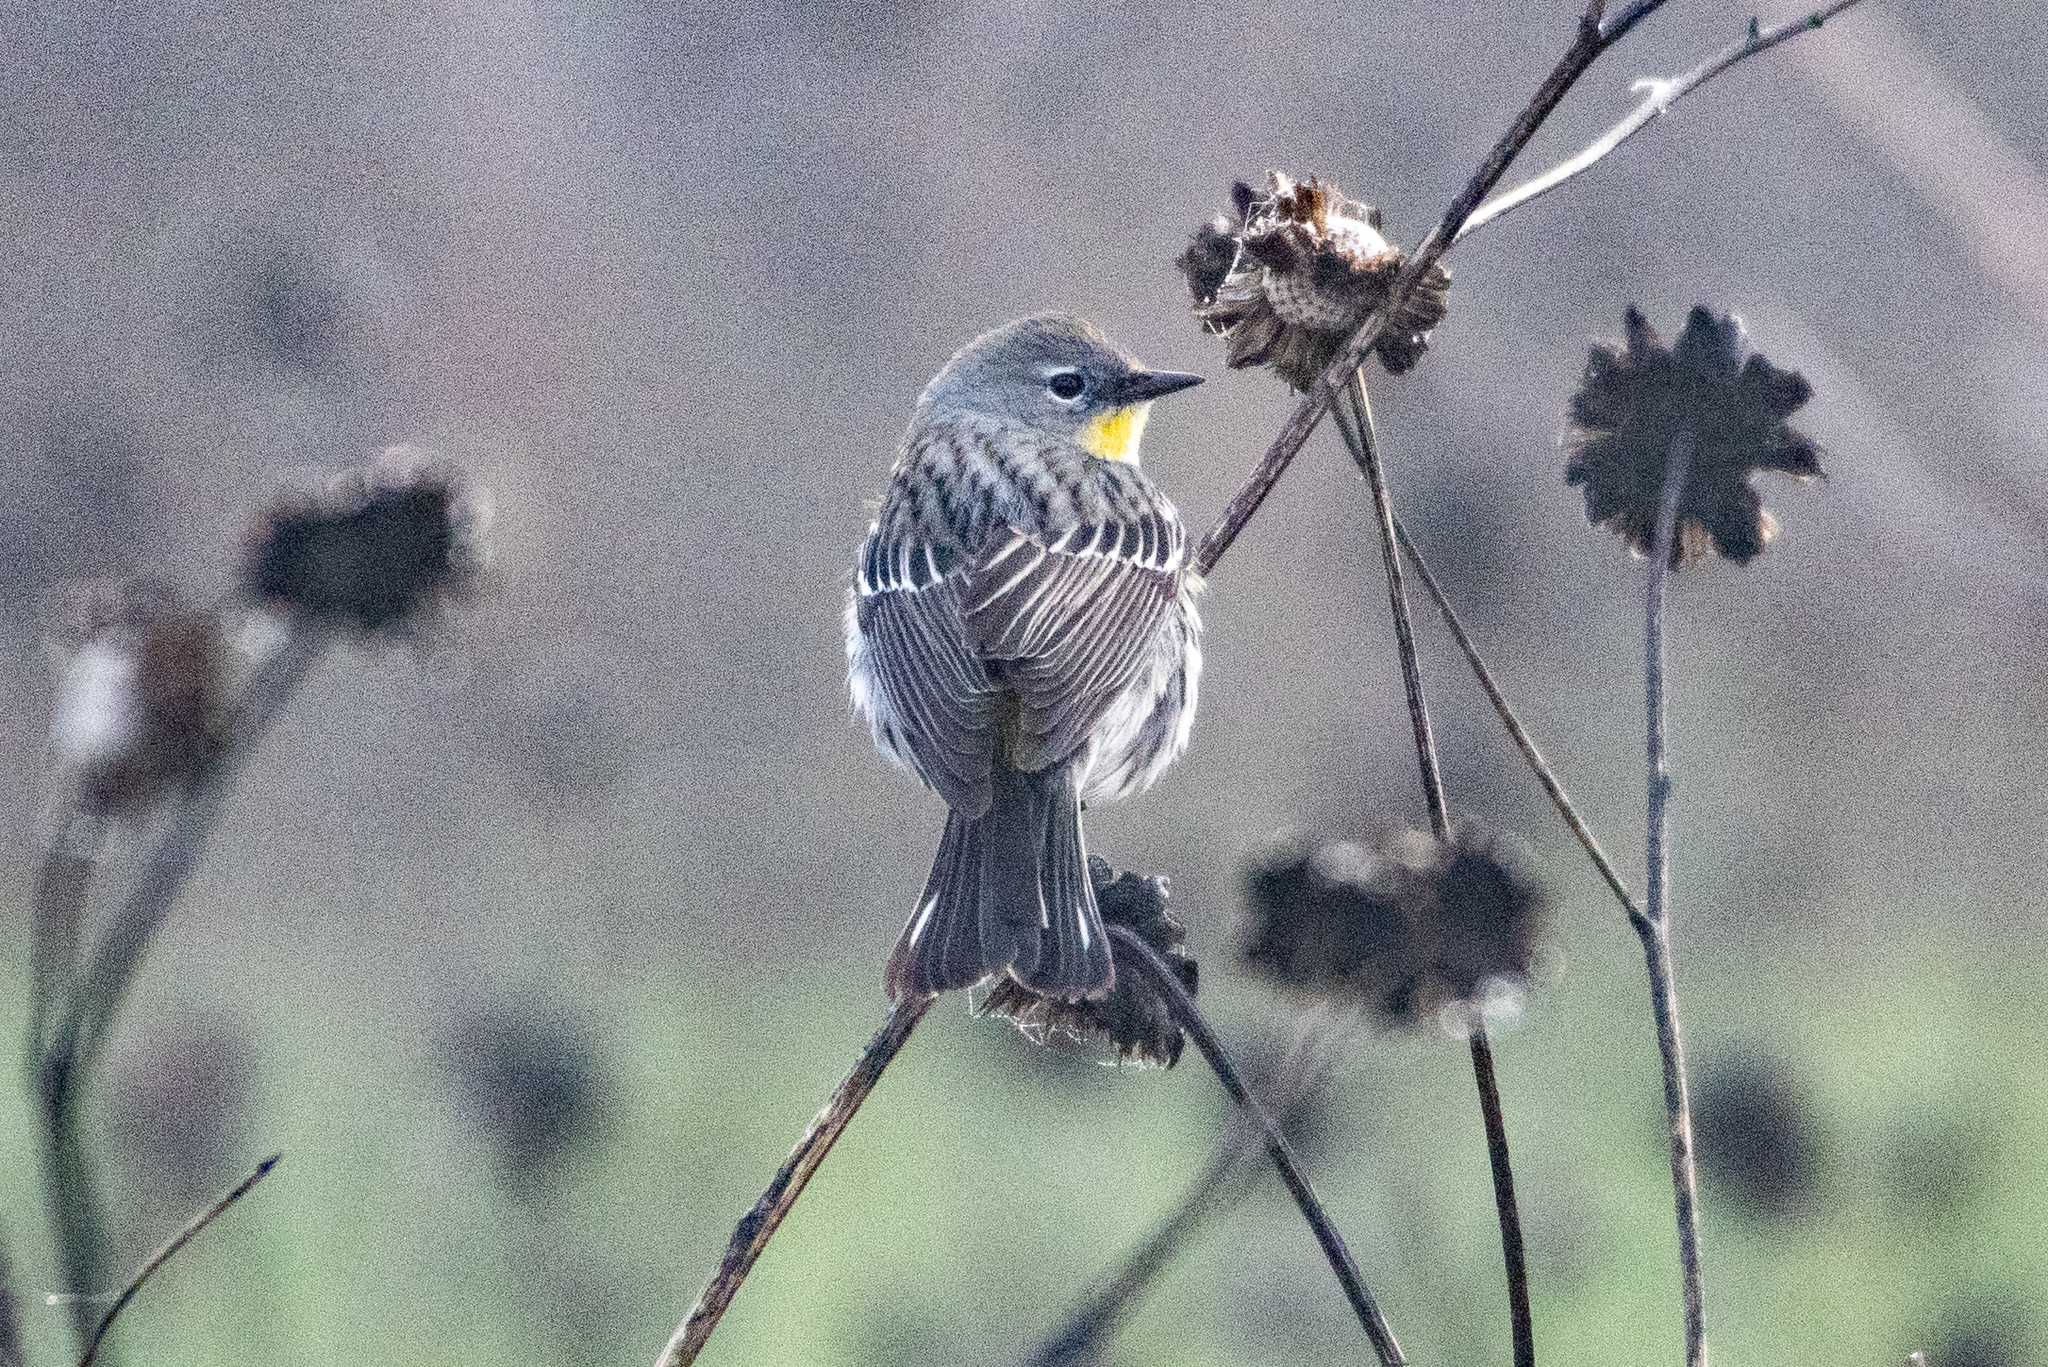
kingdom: Animalia
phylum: Chordata
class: Aves
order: Passeriformes
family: Parulidae
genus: Setophaga
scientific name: Setophaga coronata
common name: Myrtle warbler
